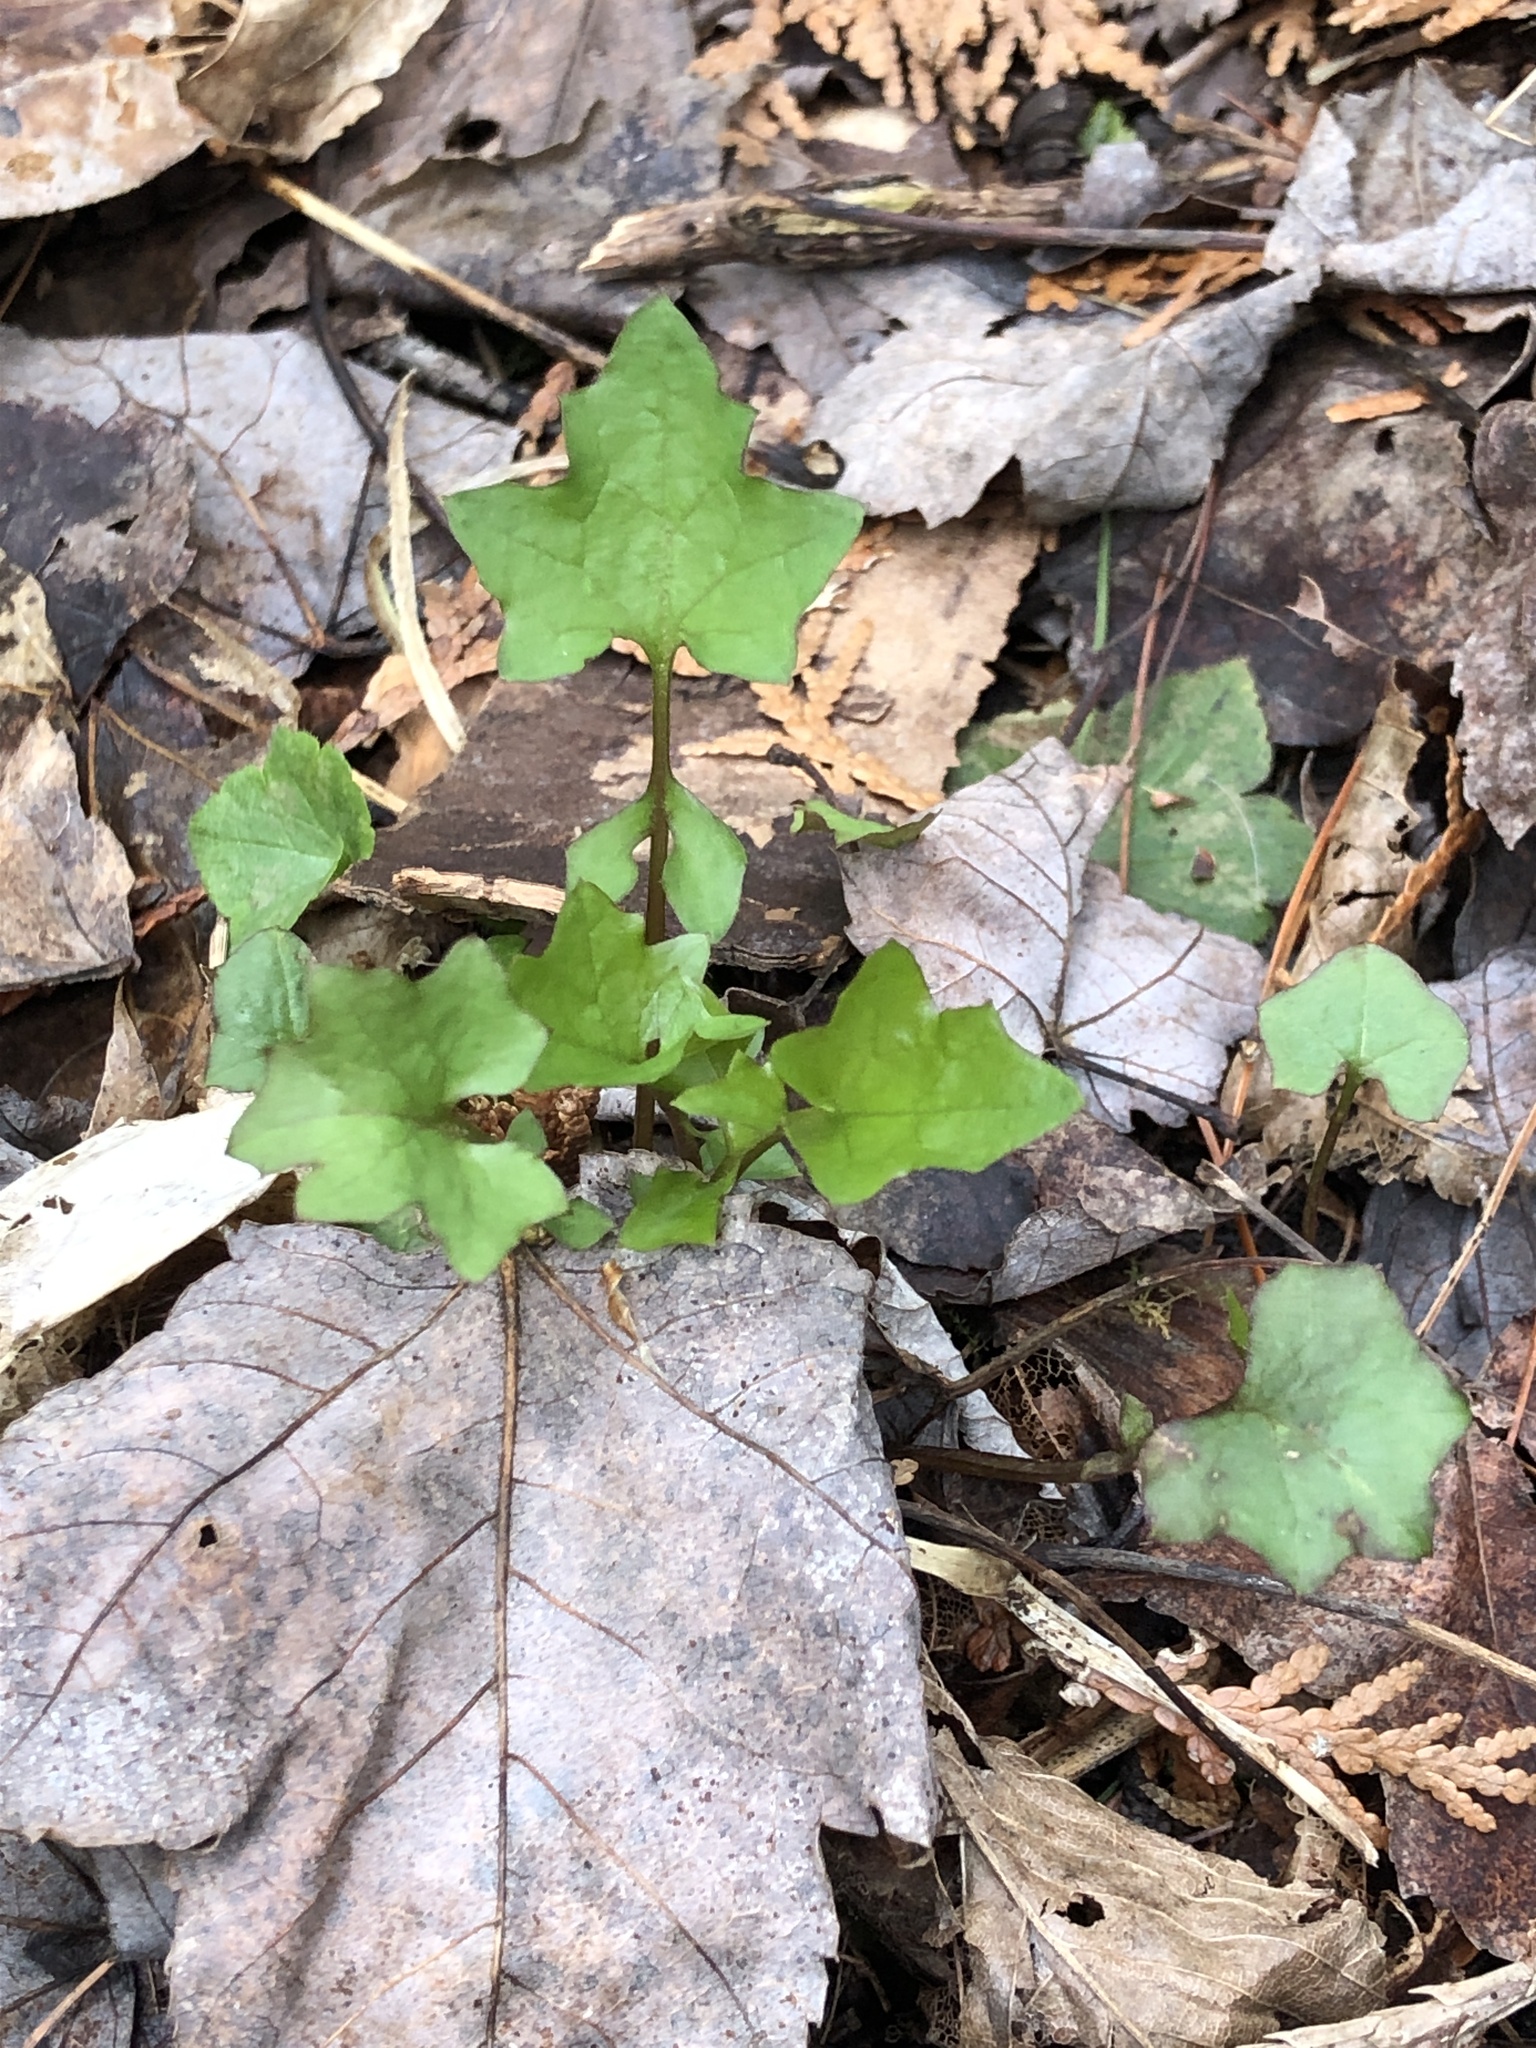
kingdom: Plantae
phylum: Tracheophyta
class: Magnoliopsida
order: Asterales
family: Asteraceae
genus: Mycelis
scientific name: Mycelis muralis
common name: Wall lettuce
